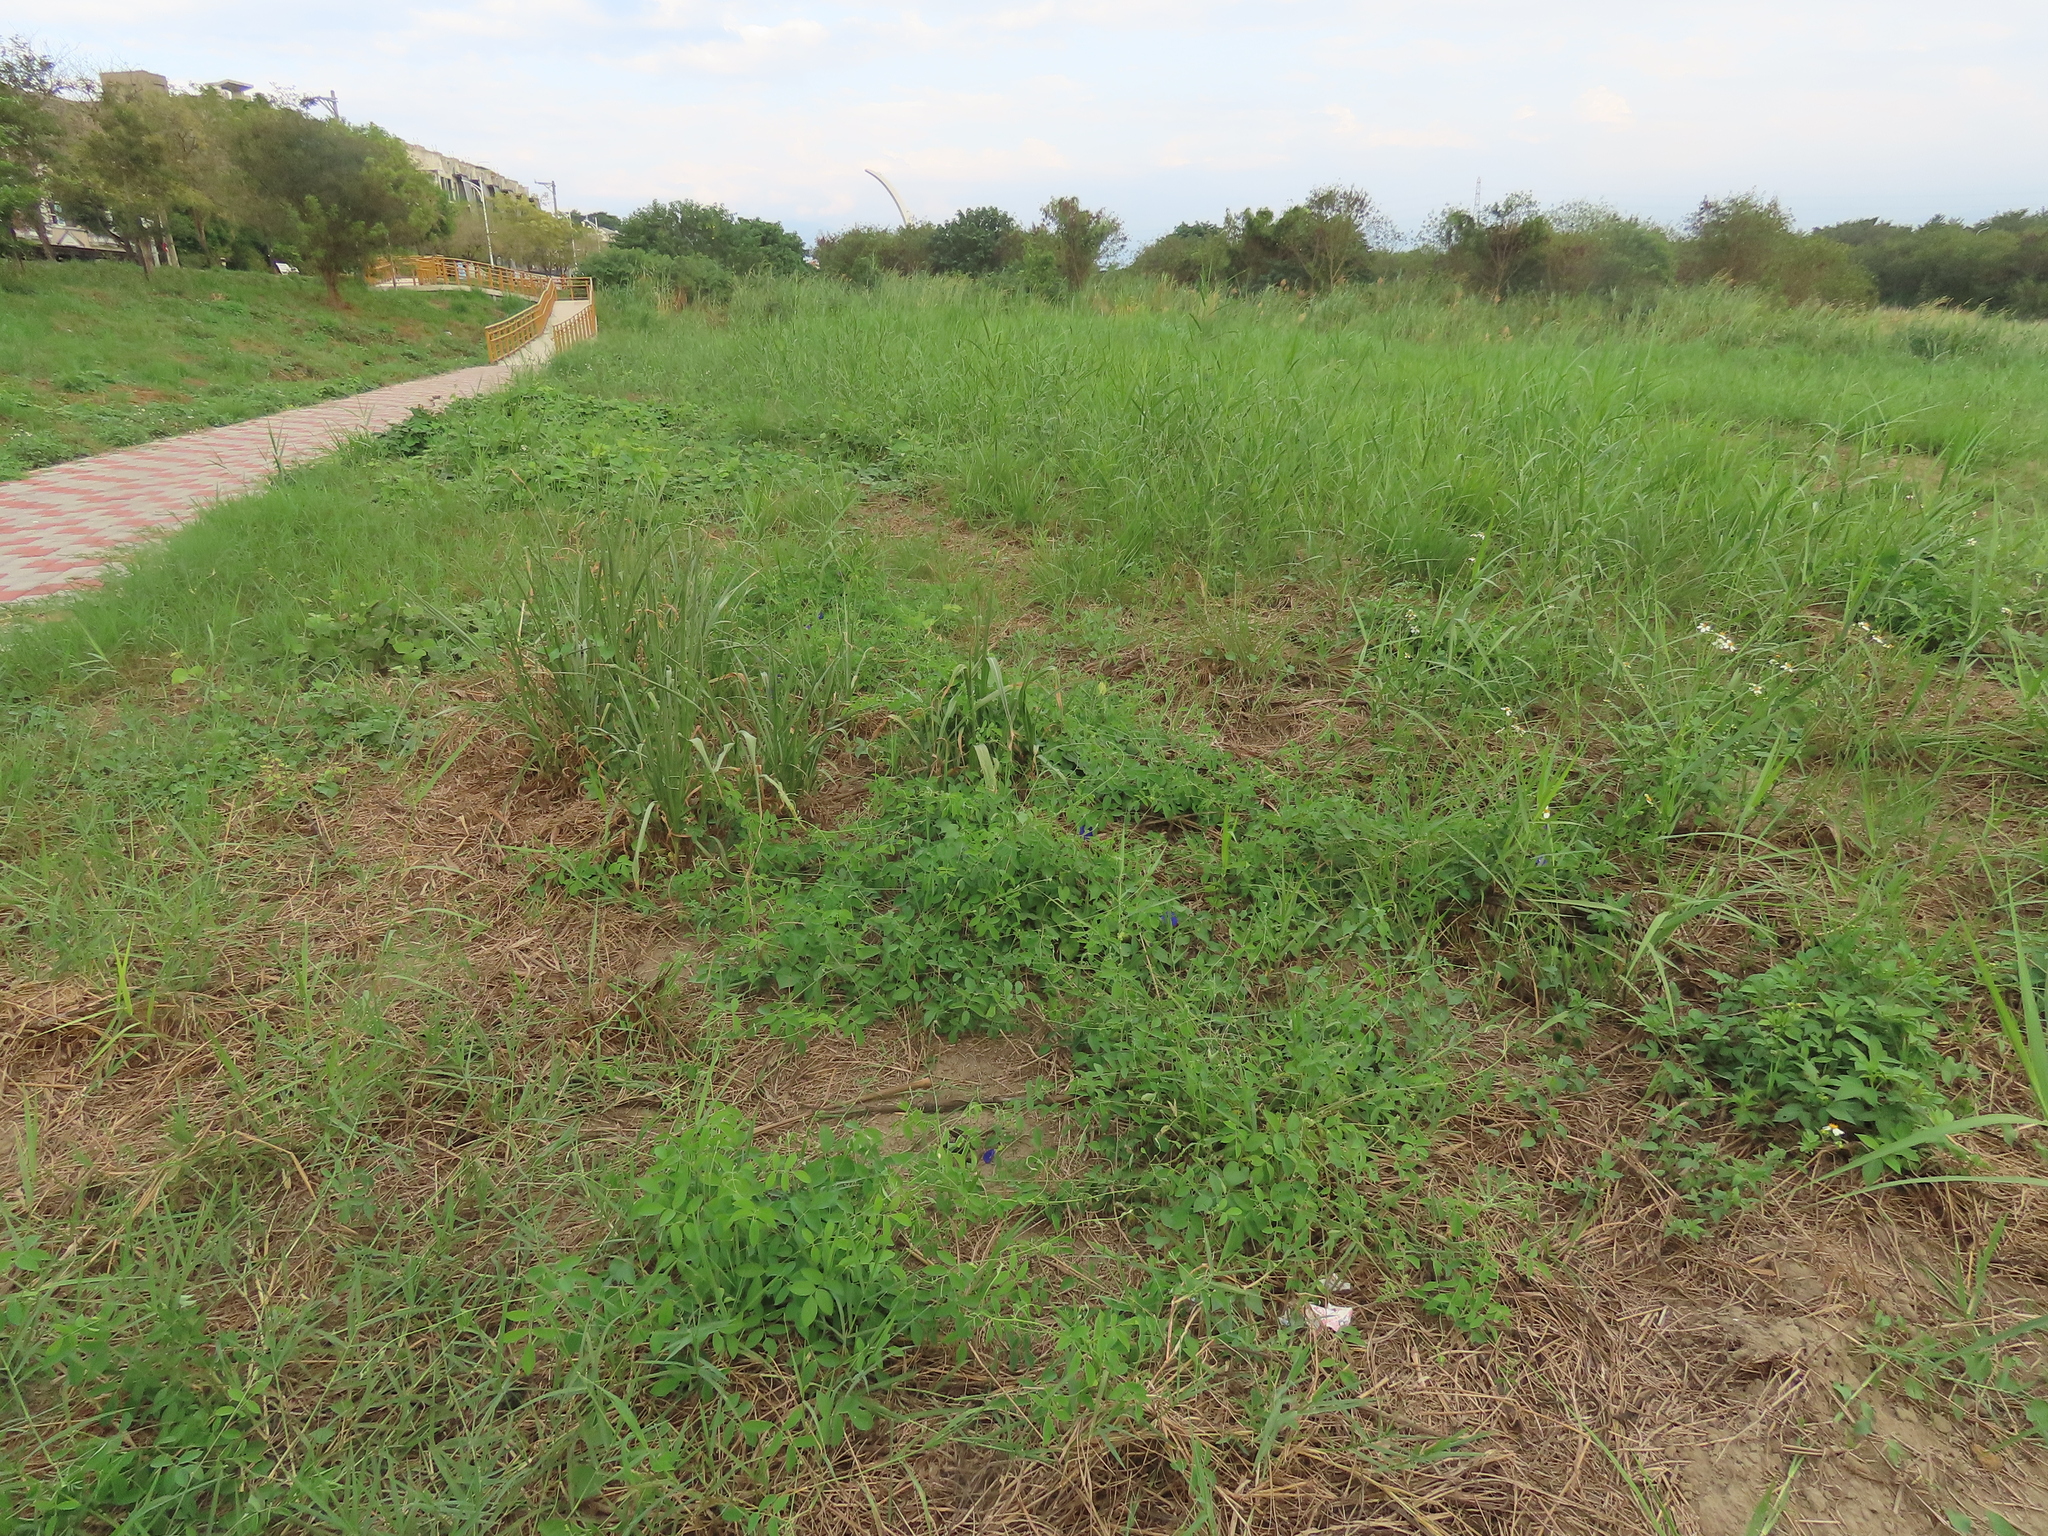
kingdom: Plantae
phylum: Tracheophyta
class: Magnoliopsida
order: Fabales
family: Fabaceae
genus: Clitoria
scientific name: Clitoria ternatea
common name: Asian pigeonwings
